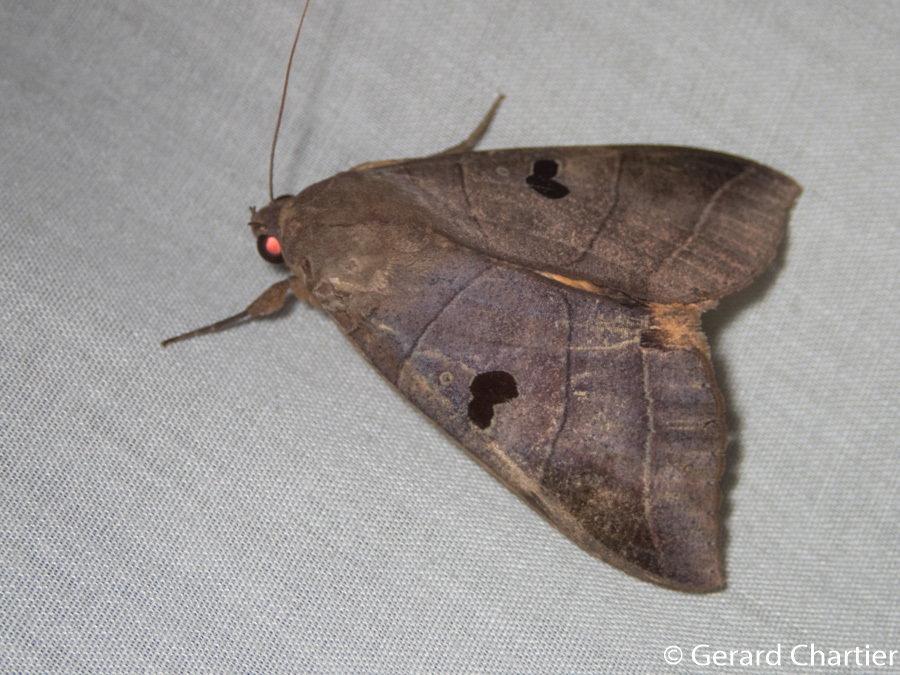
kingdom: Animalia
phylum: Arthropoda
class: Insecta
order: Lepidoptera
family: Erebidae
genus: Thyas
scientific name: Thyas coronata
